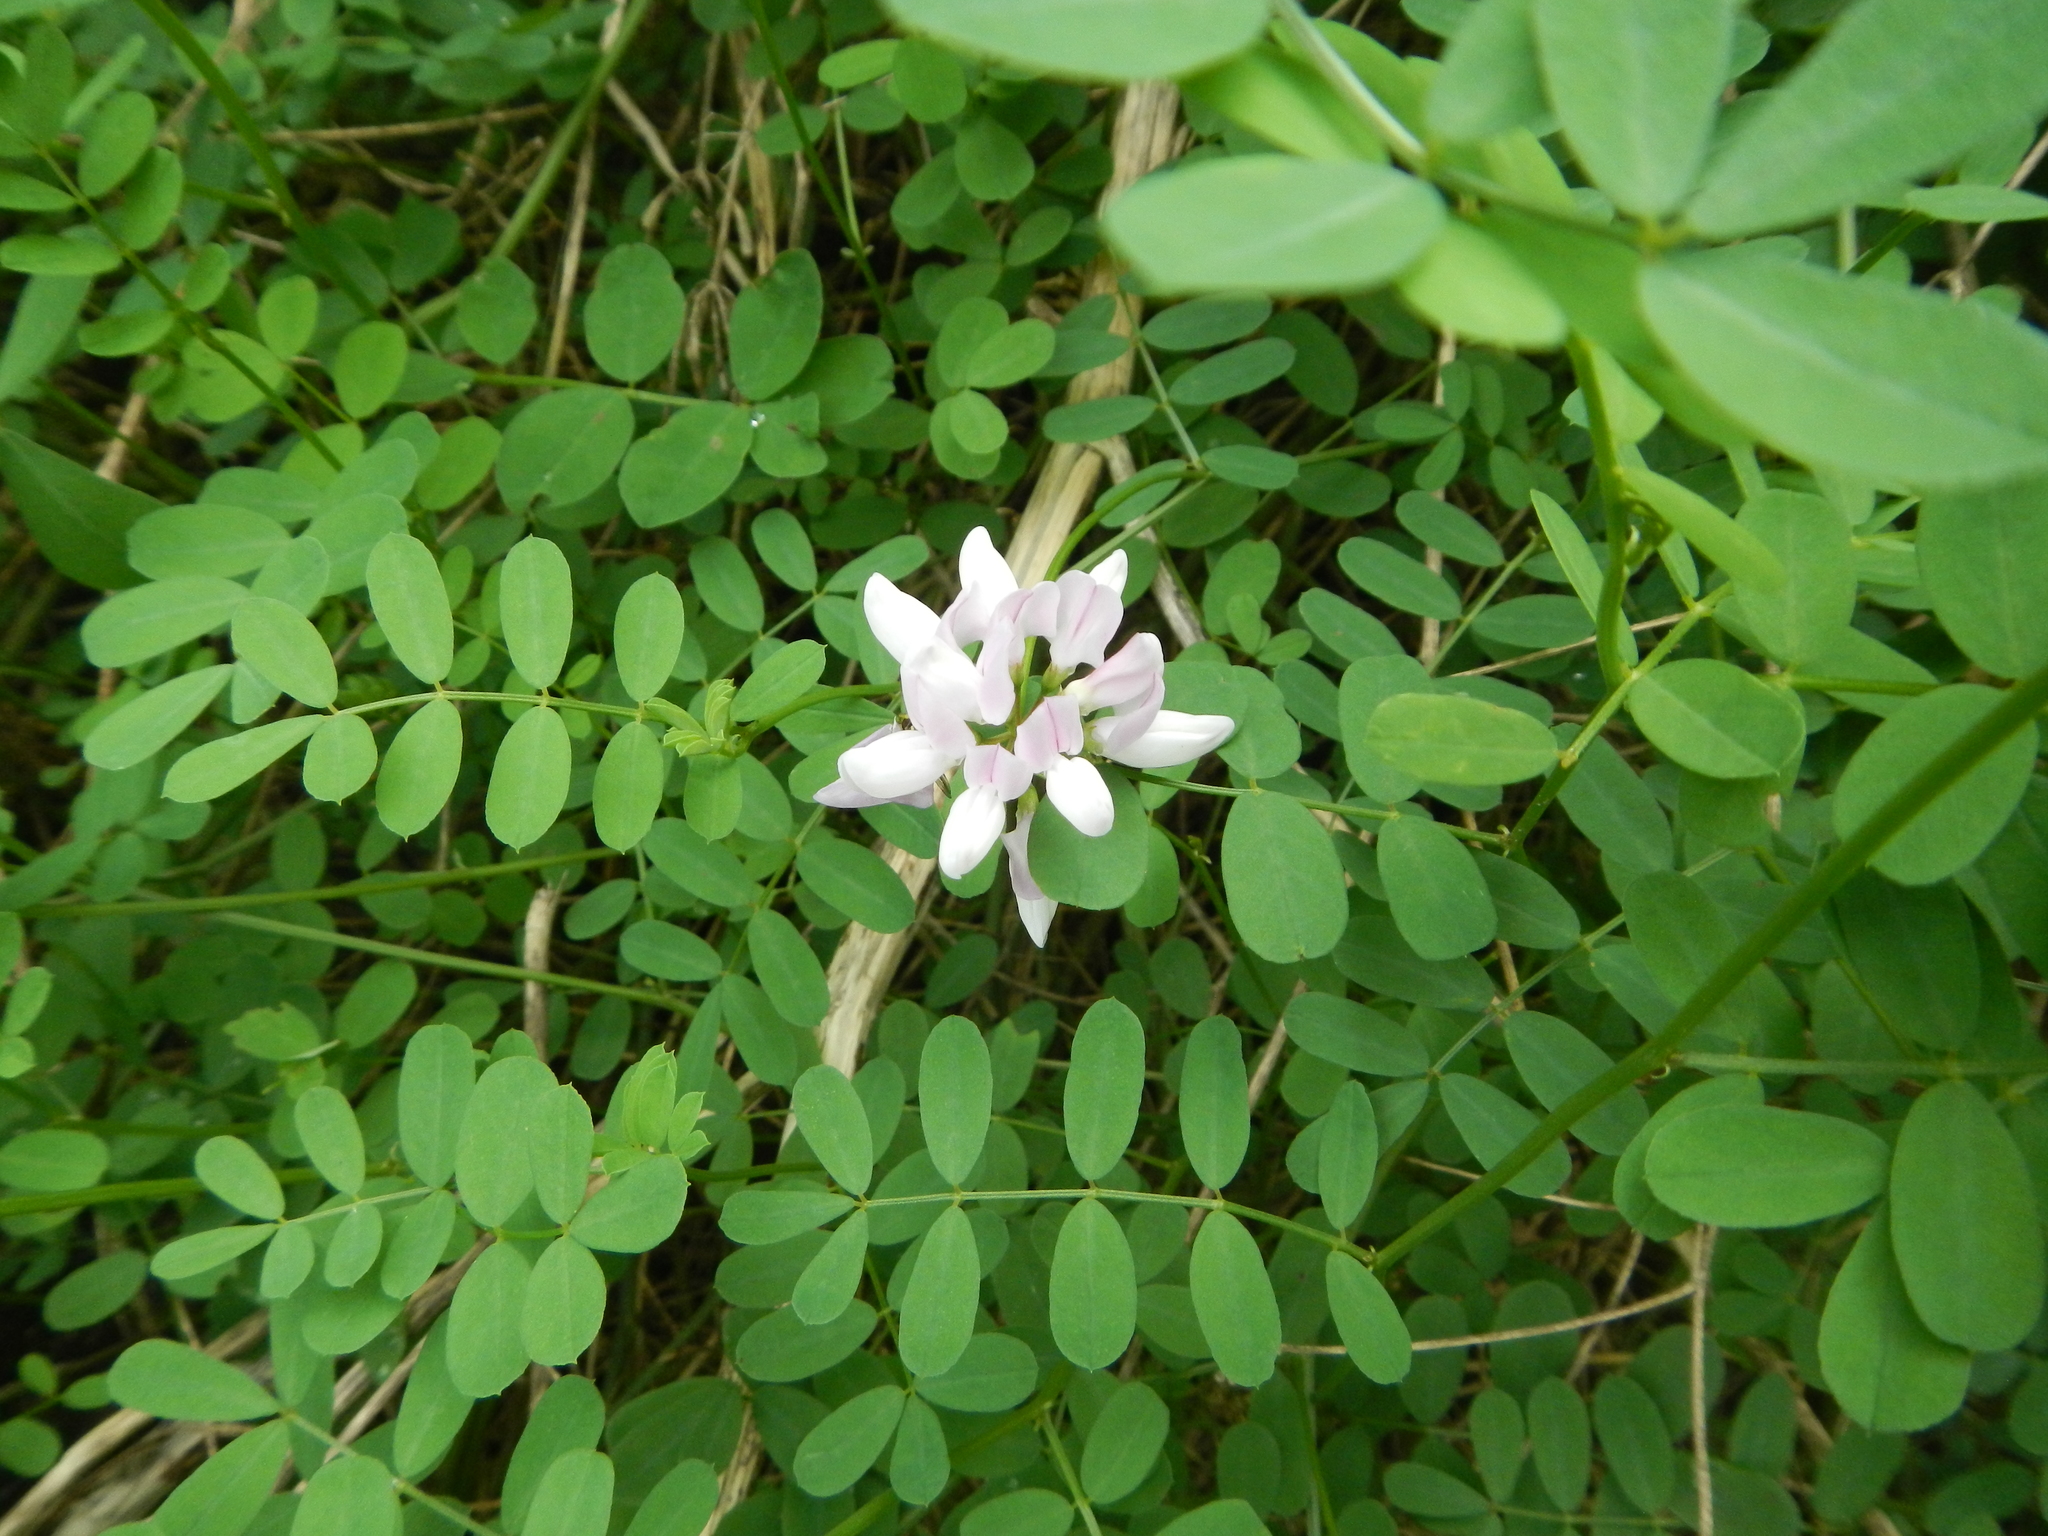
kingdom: Plantae
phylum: Tracheophyta
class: Magnoliopsida
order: Fabales
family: Fabaceae
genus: Coronilla
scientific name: Coronilla varia
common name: Crownvetch
